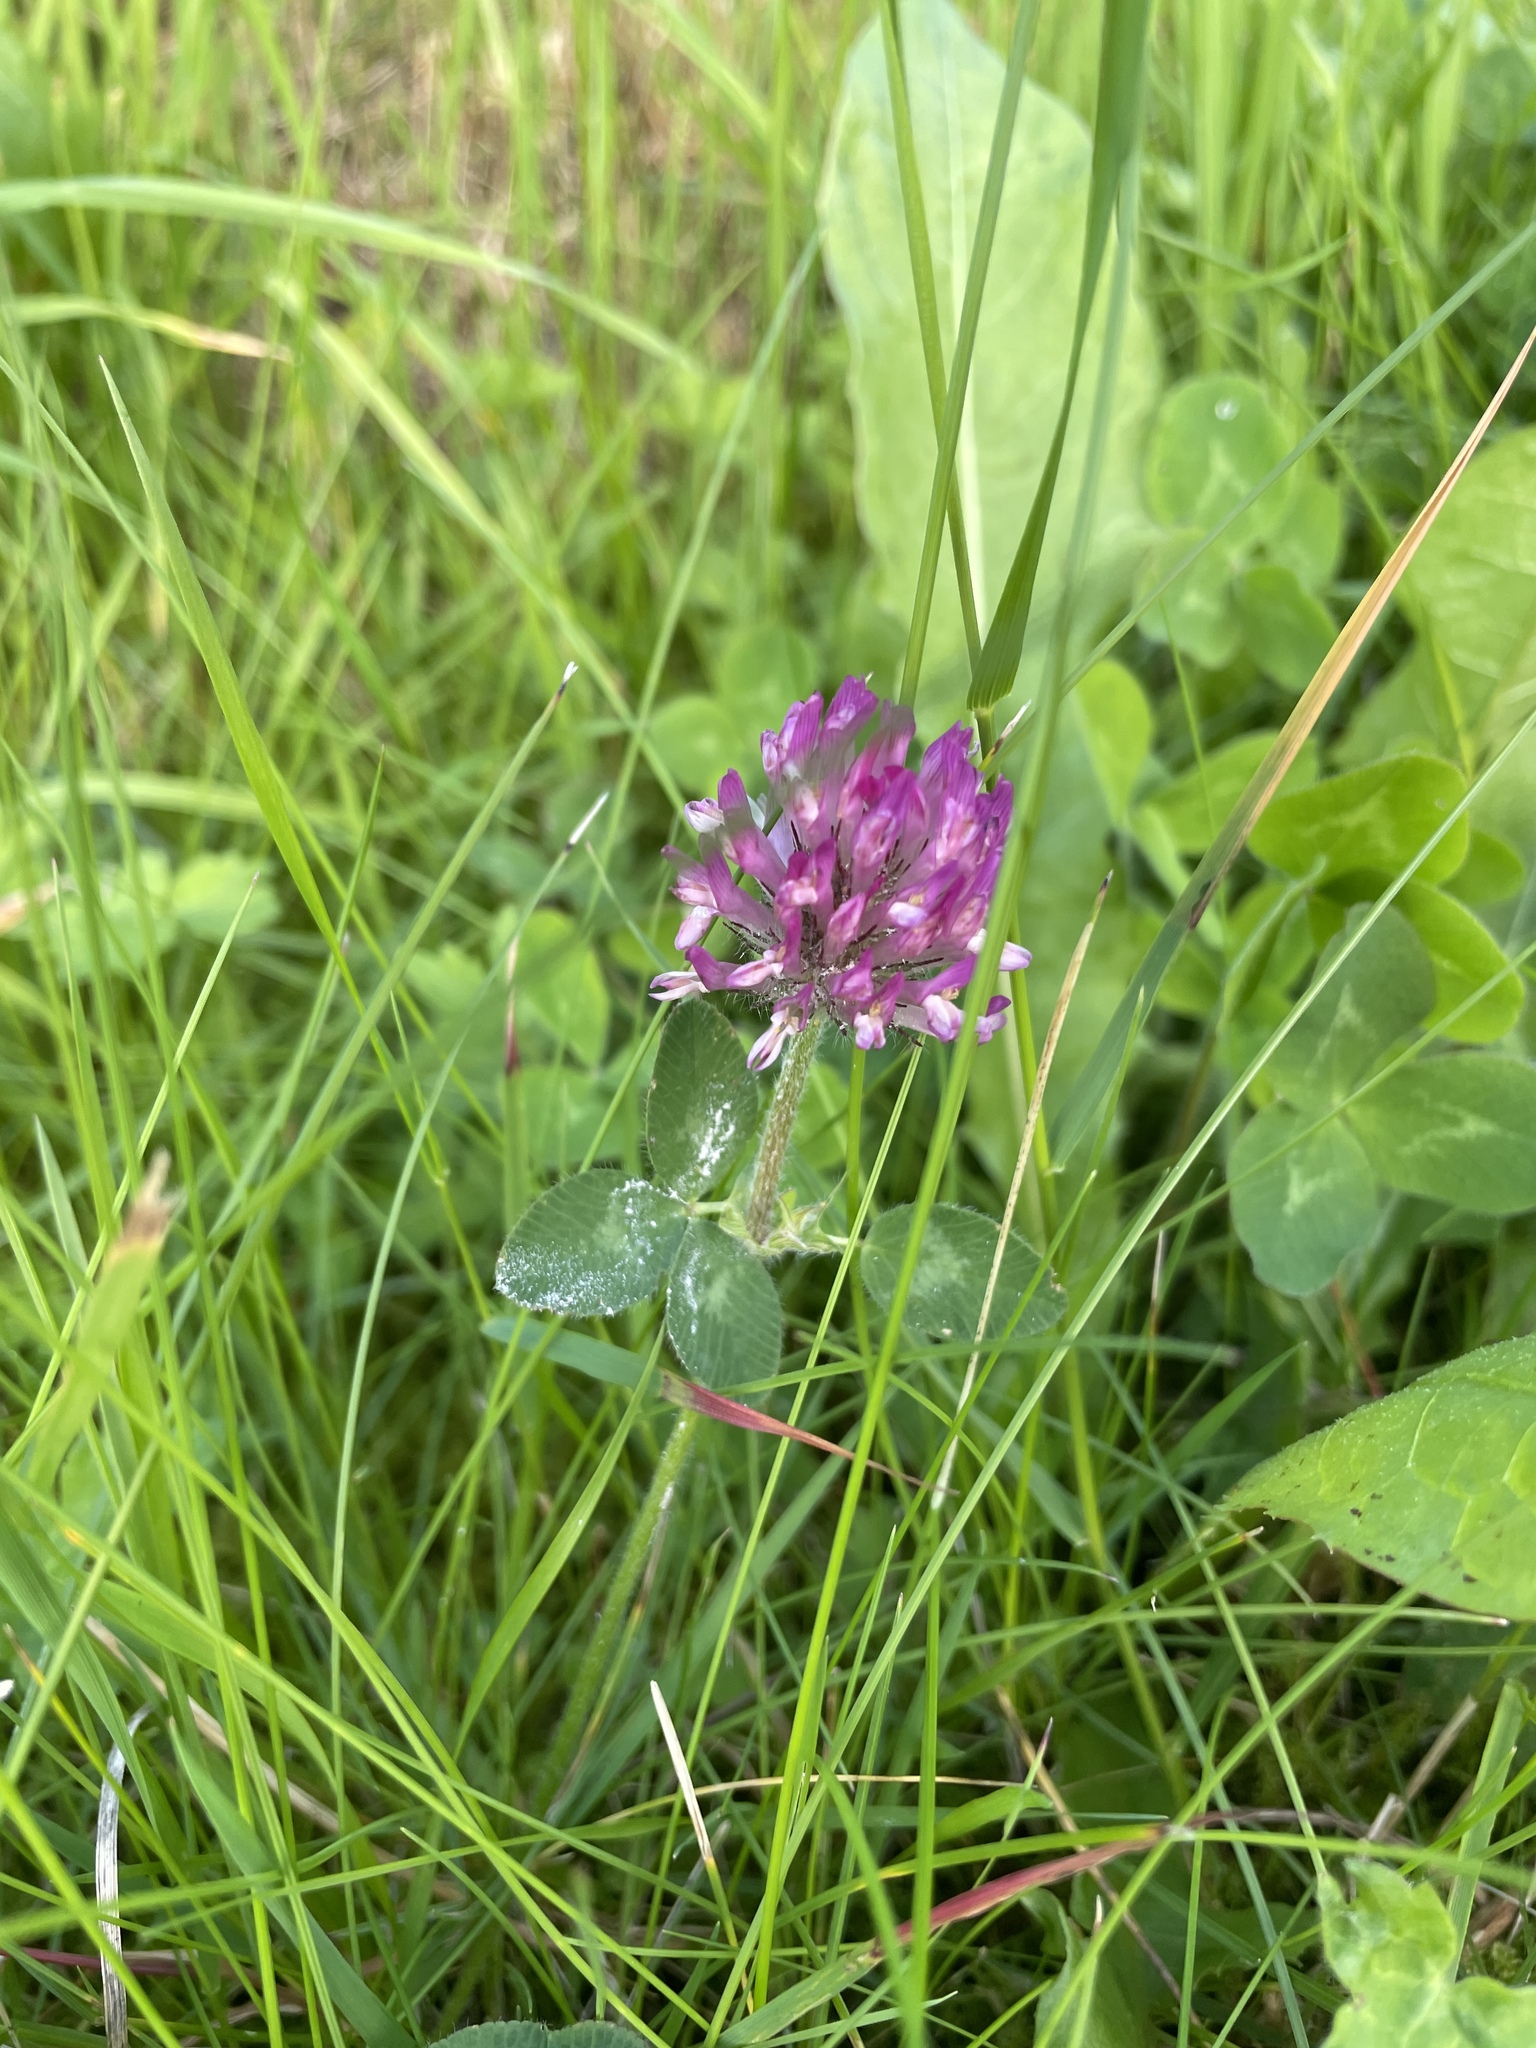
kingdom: Plantae
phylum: Tracheophyta
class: Magnoliopsida
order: Fabales
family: Fabaceae
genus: Trifolium
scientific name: Trifolium pratense
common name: Red clover
